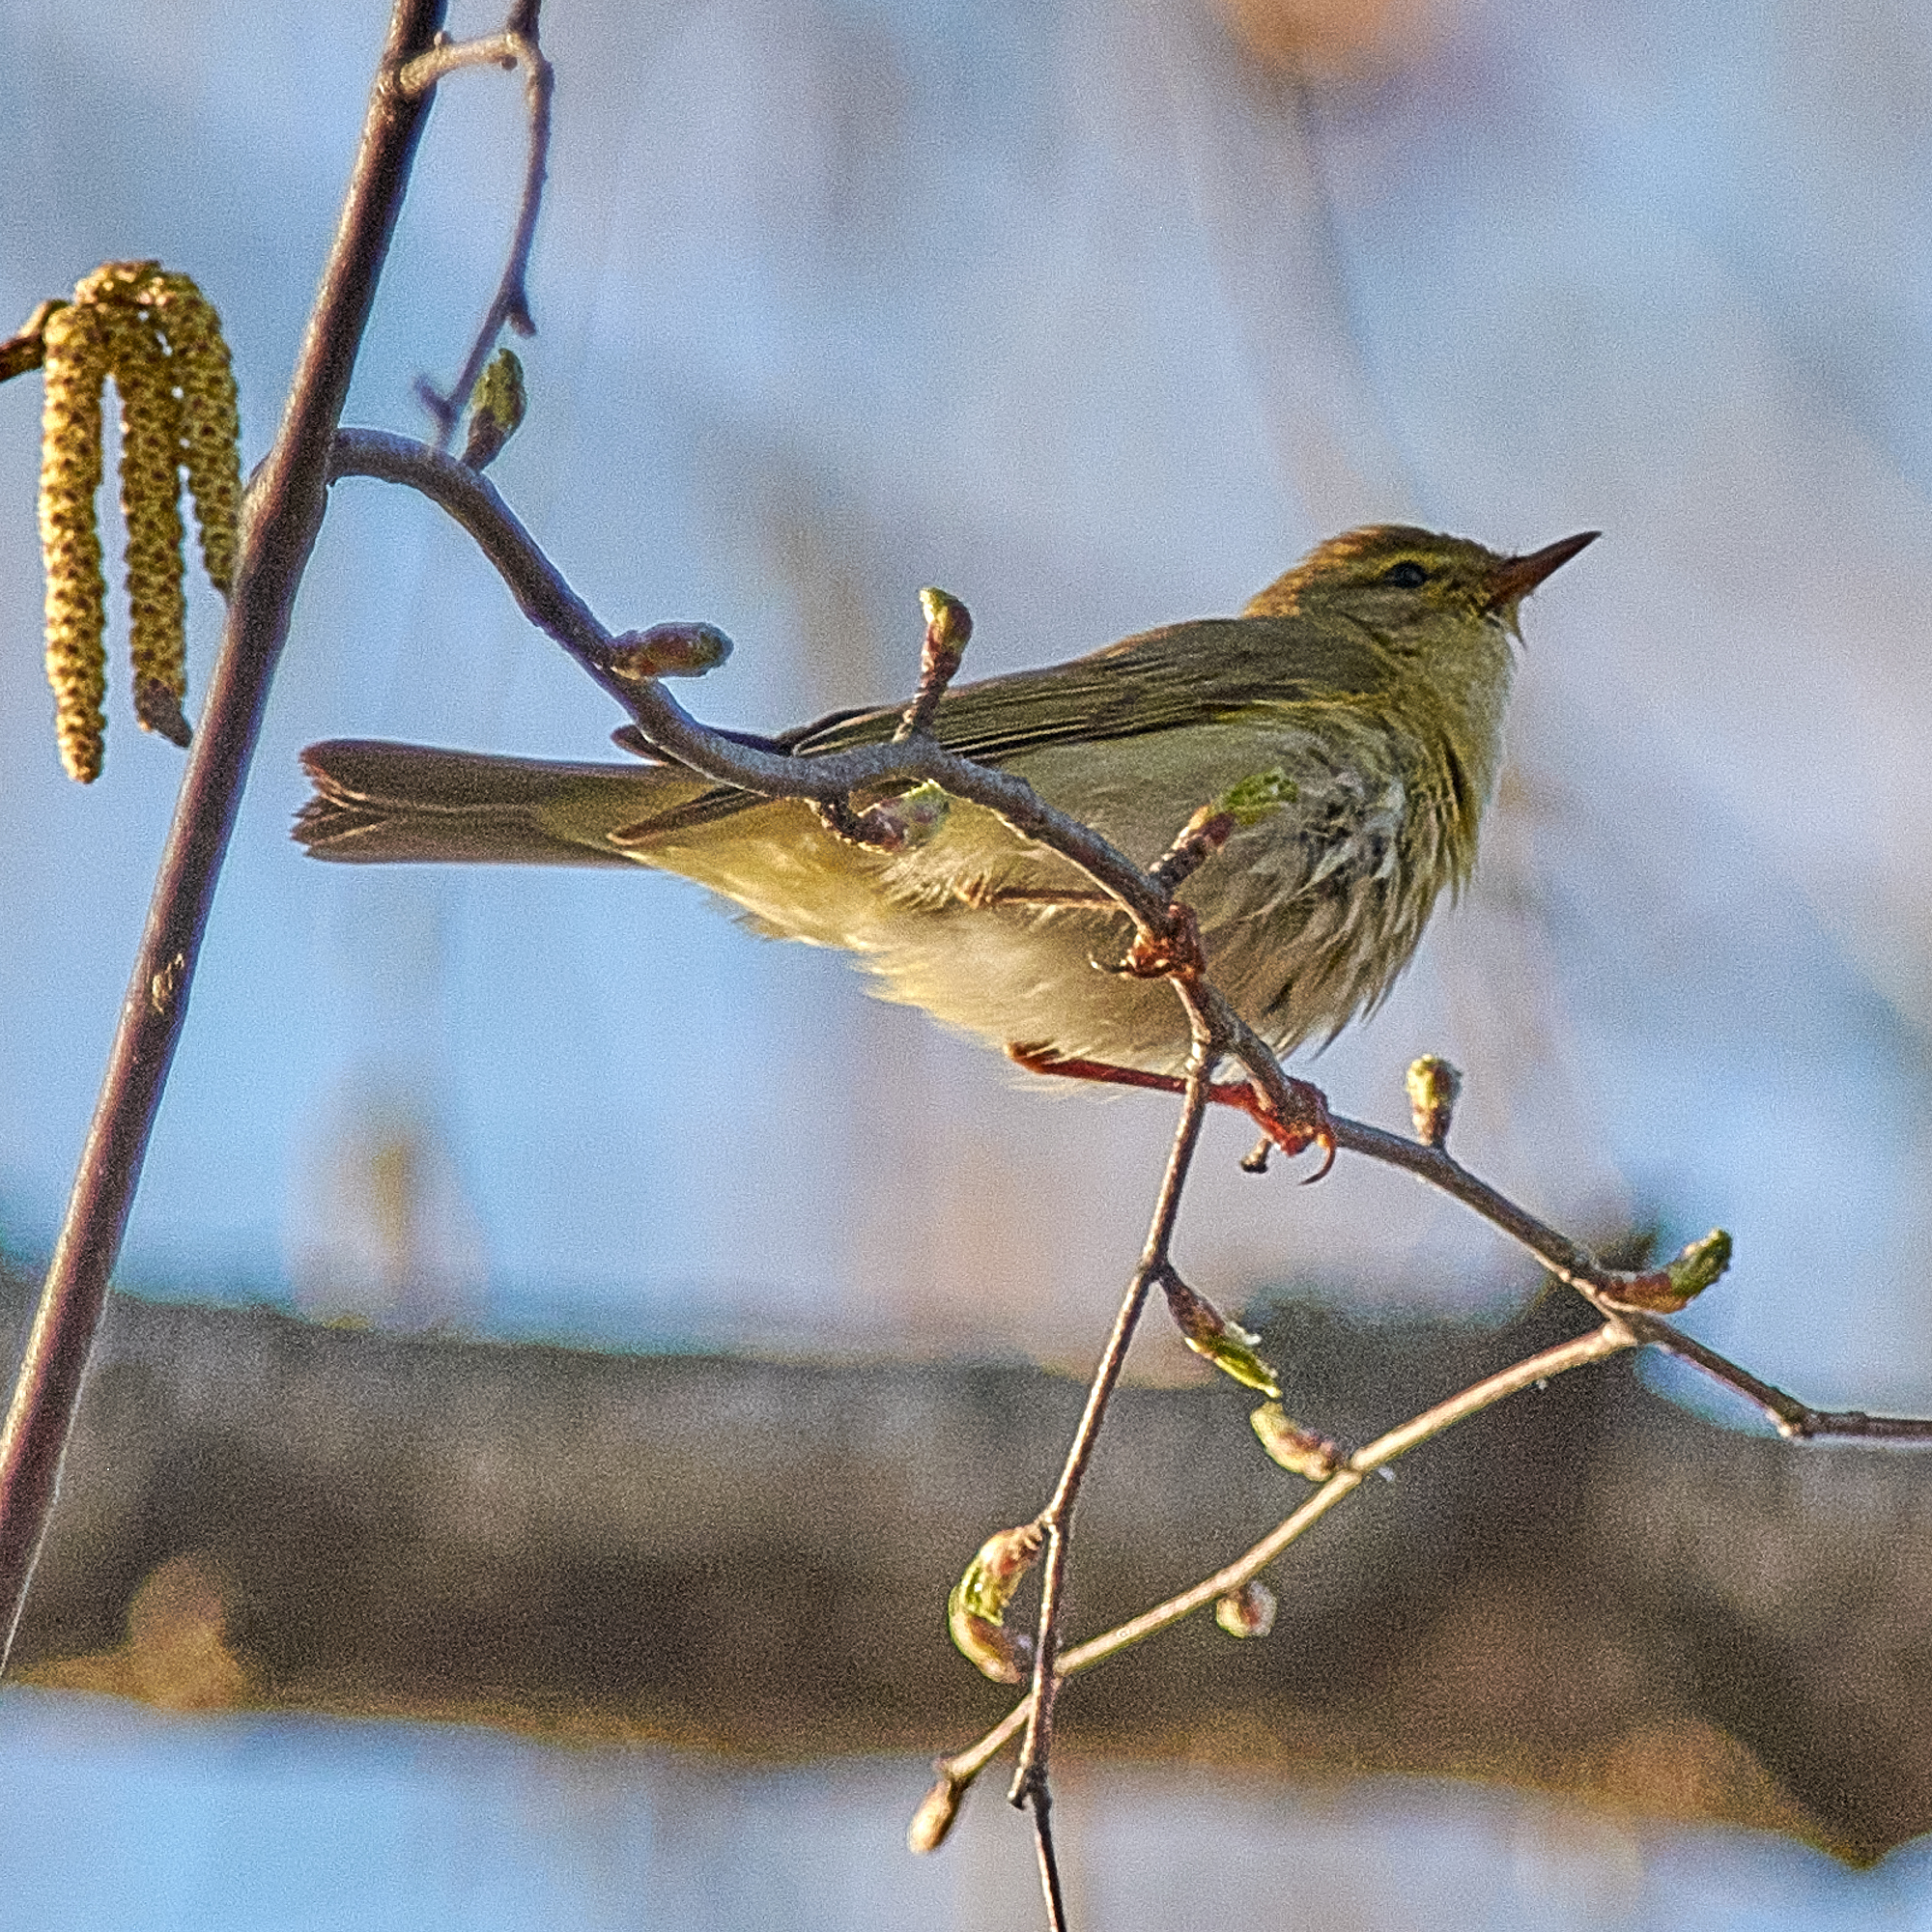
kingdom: Animalia
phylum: Chordata
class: Aves
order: Passeriformes
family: Phylloscopidae
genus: Phylloscopus
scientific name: Phylloscopus trochilus
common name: Willow warbler
